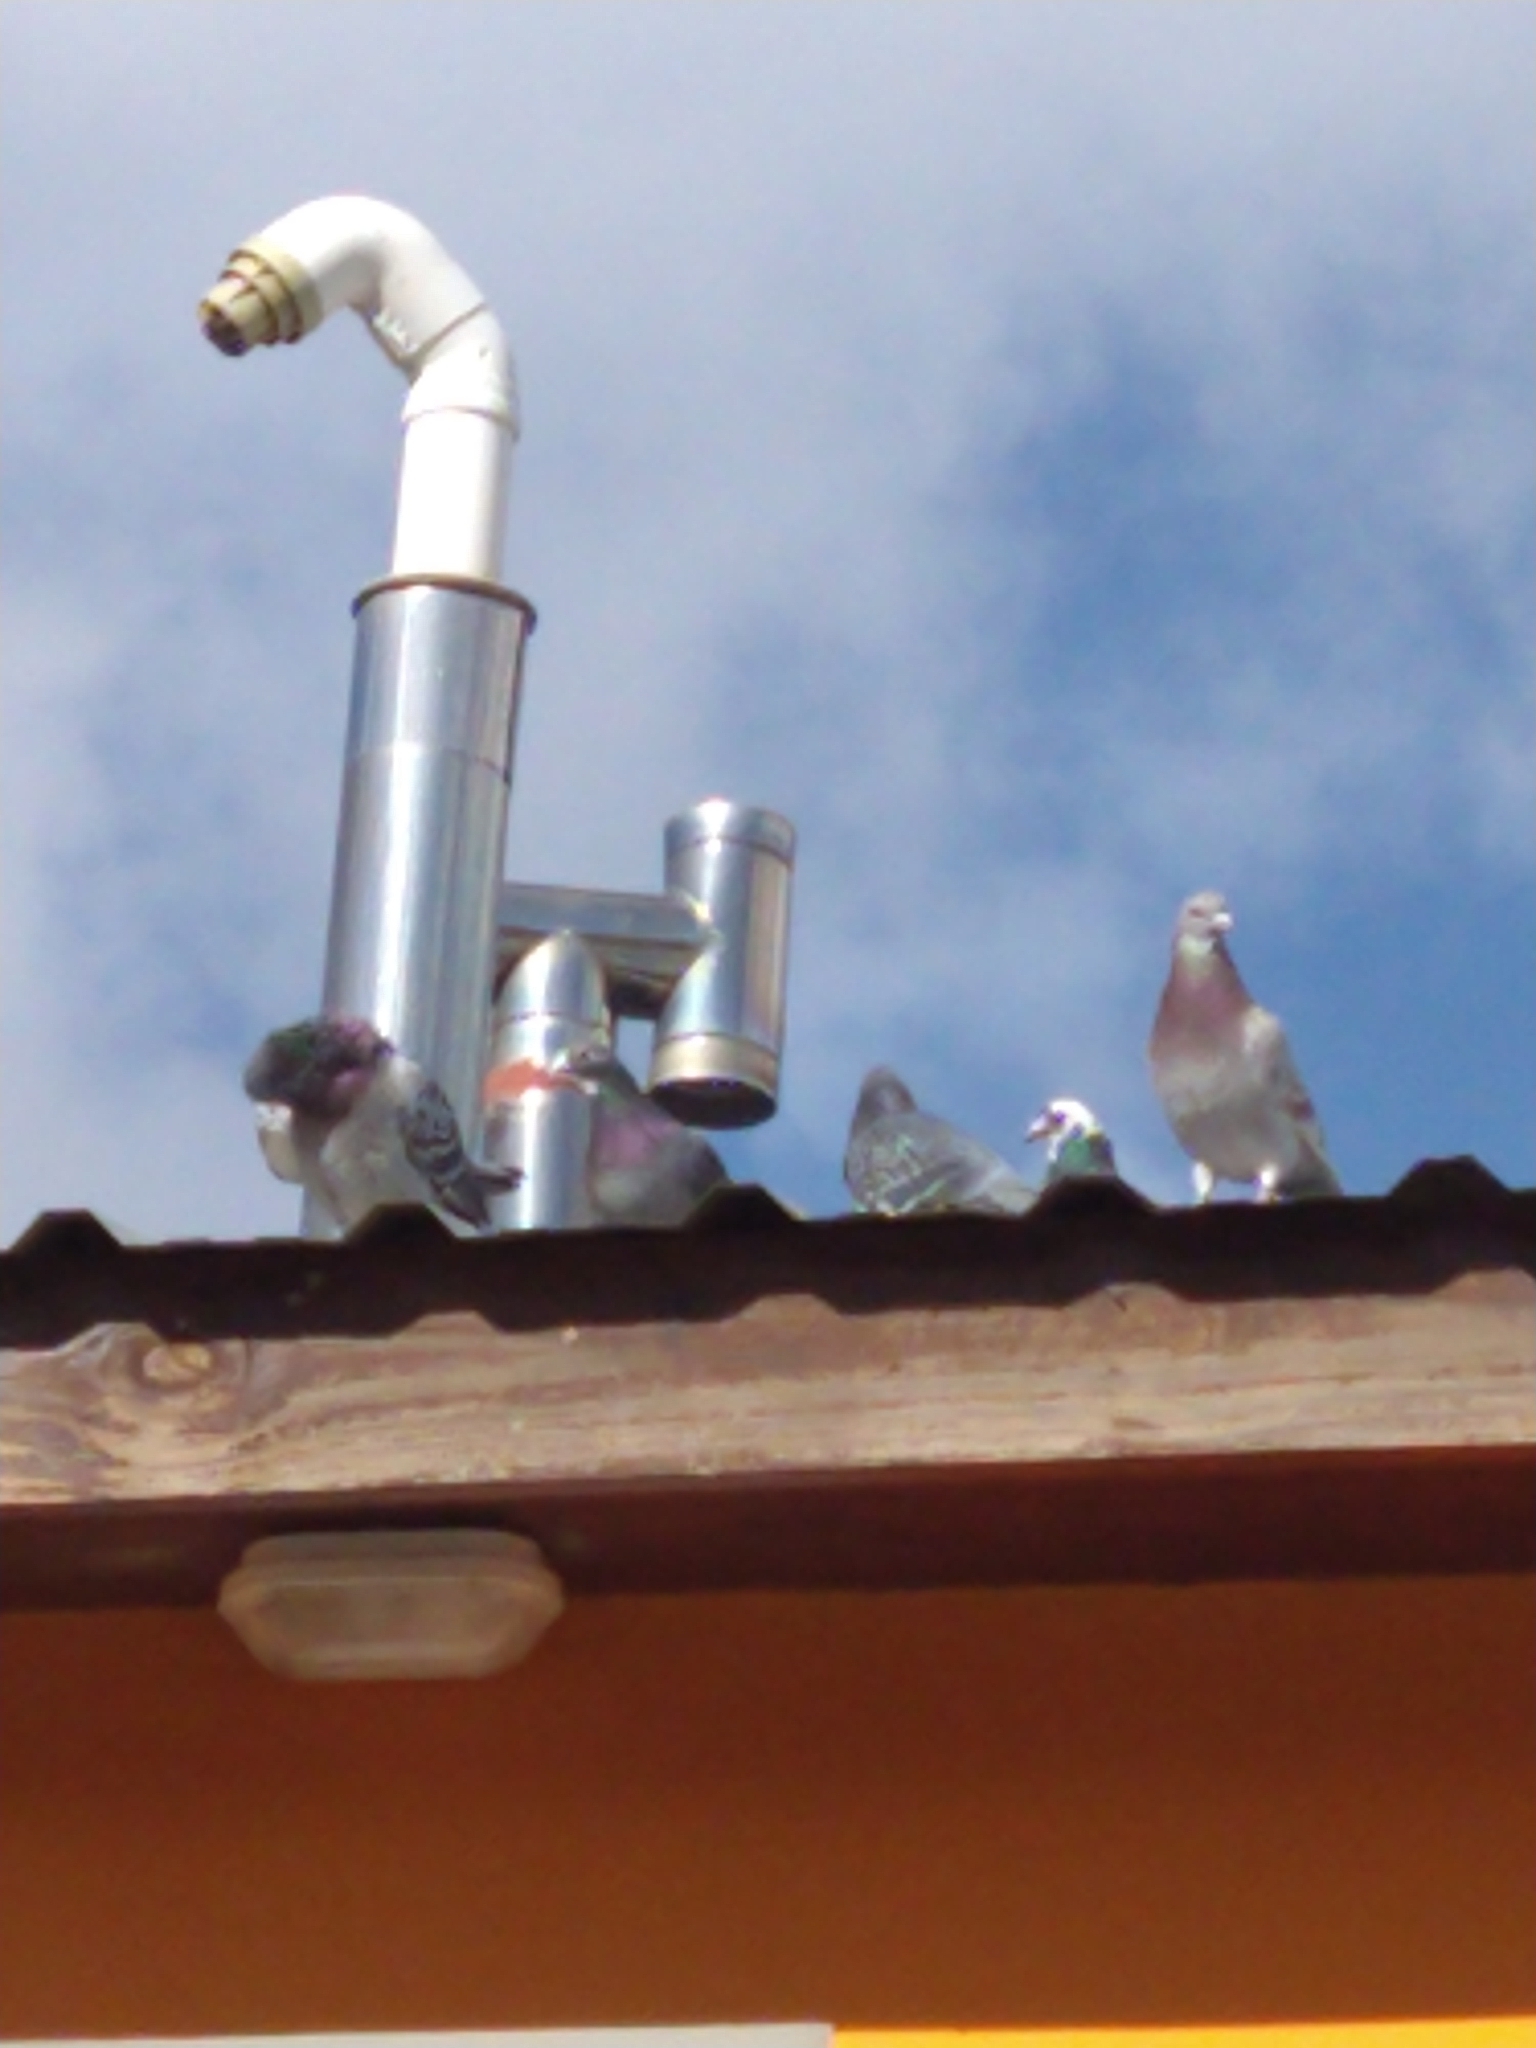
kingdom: Animalia
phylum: Chordata
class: Aves
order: Columbiformes
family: Columbidae
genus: Columba
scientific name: Columba livia
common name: Rock pigeon
